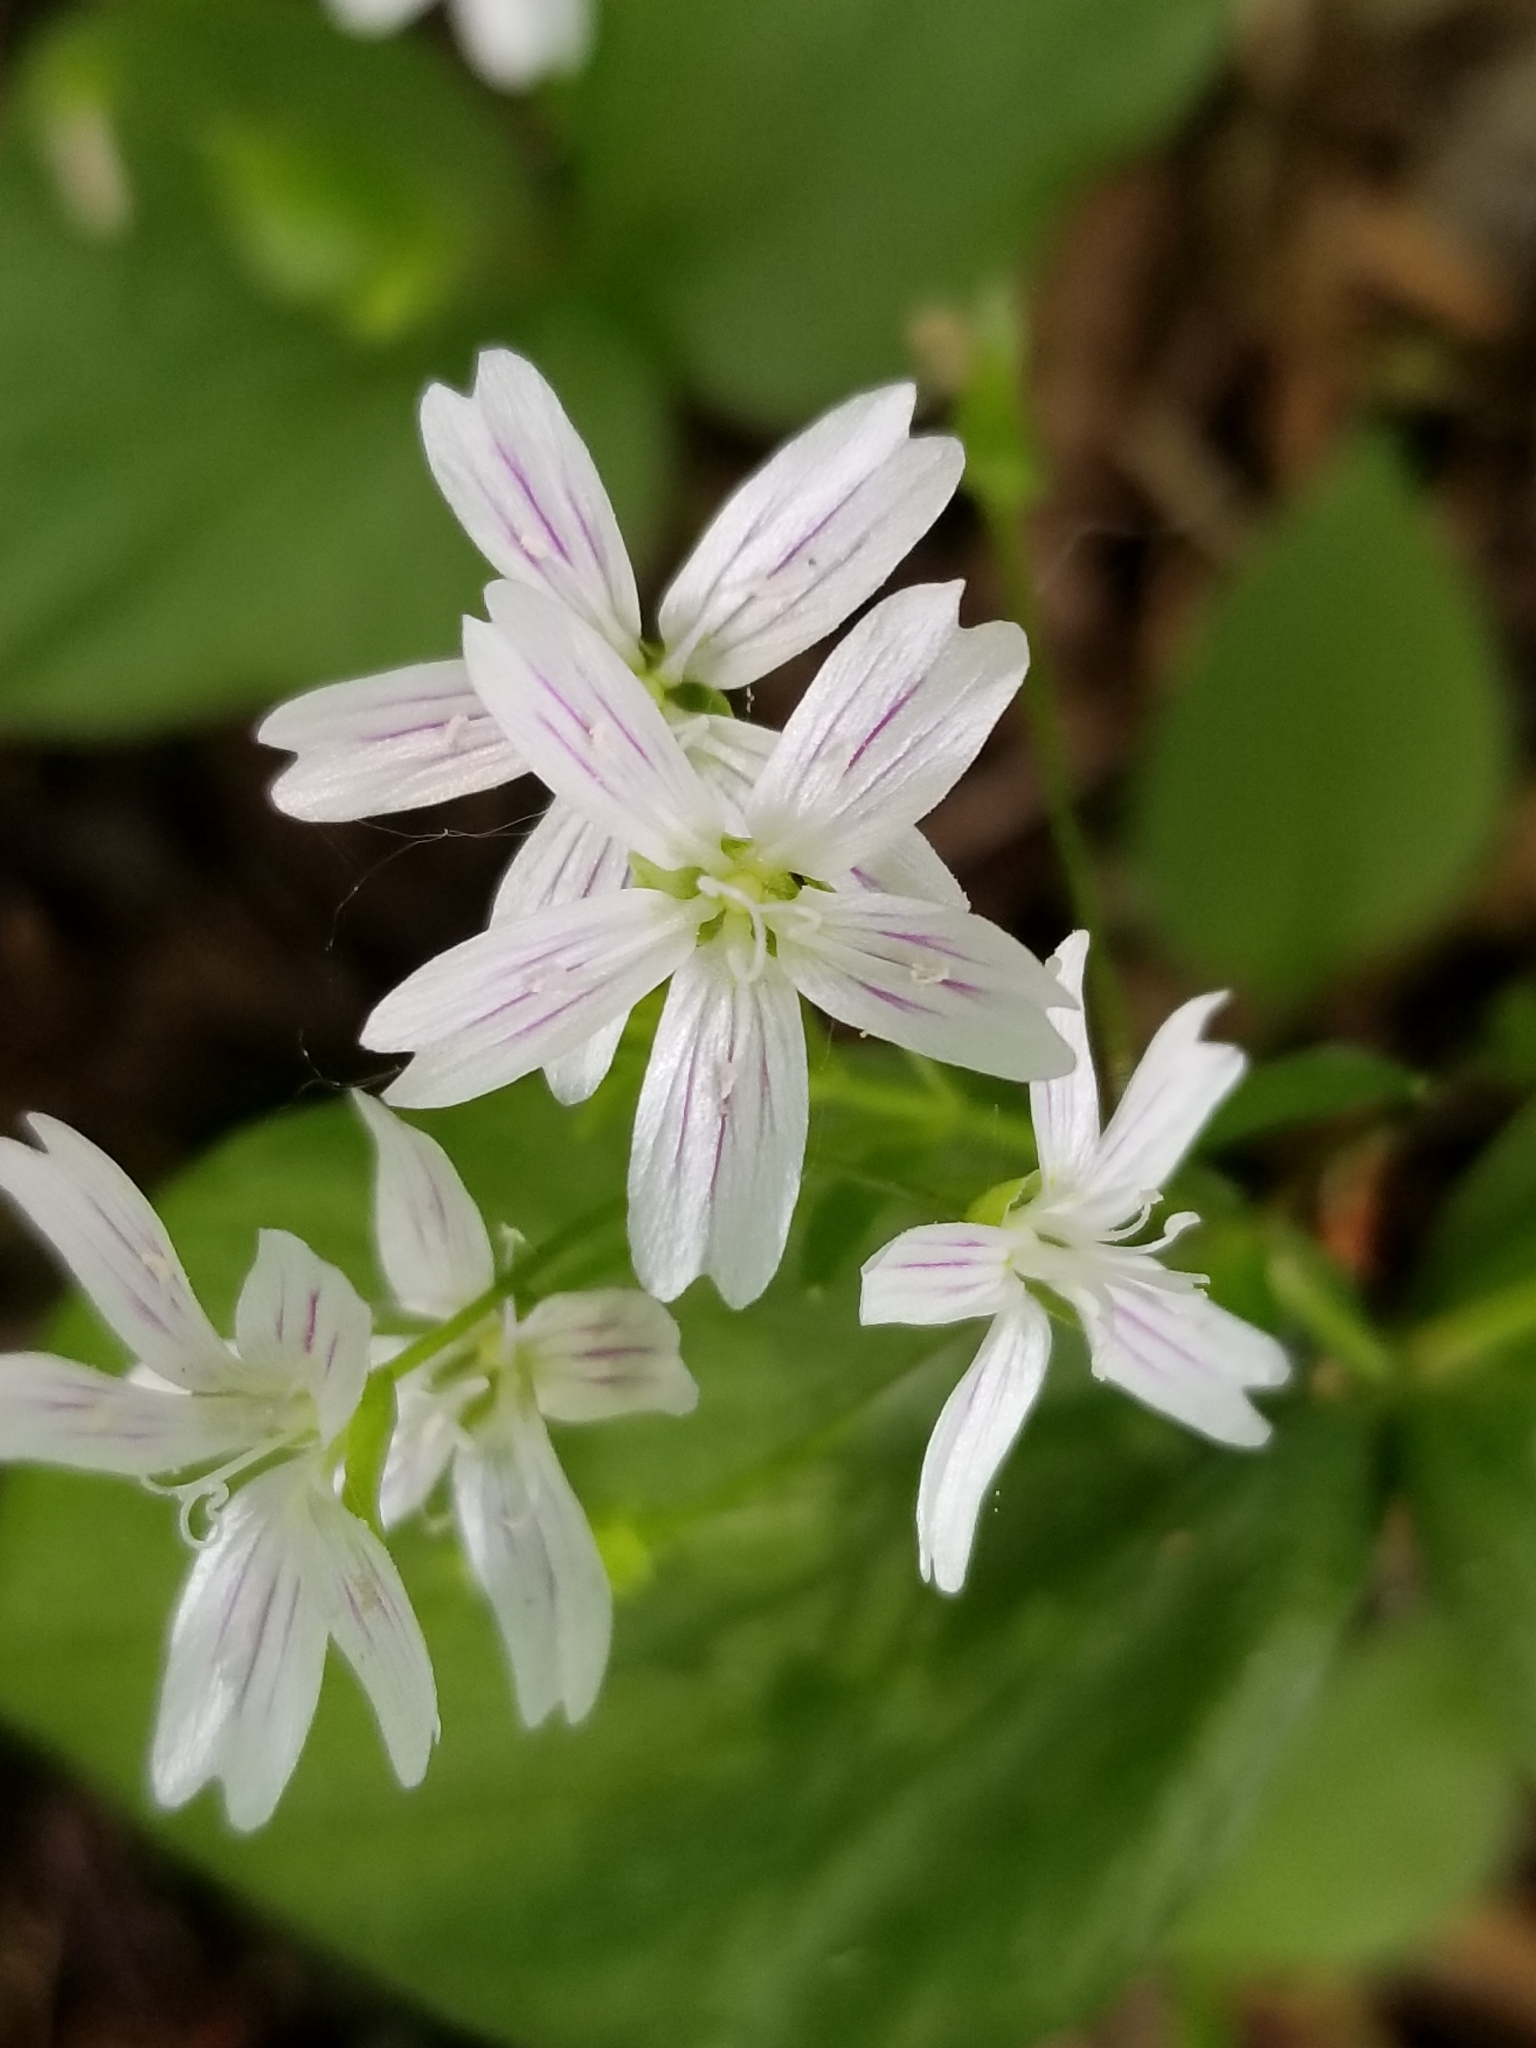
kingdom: Plantae
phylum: Tracheophyta
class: Magnoliopsida
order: Caryophyllales
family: Montiaceae
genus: Claytonia
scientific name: Claytonia sibirica
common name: Pink purslane
